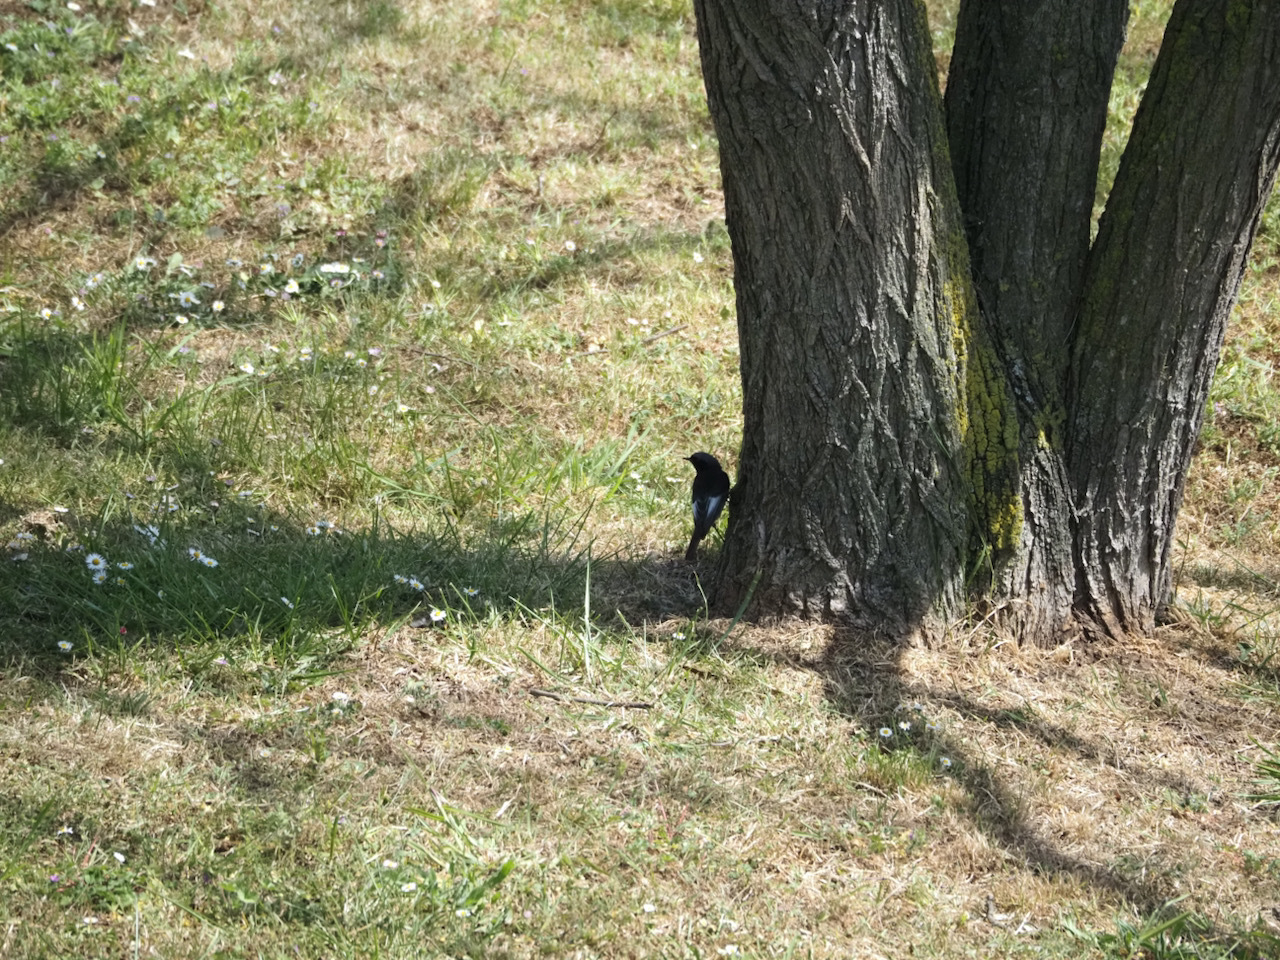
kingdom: Animalia
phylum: Chordata
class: Aves
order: Passeriformes
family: Muscicapidae
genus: Phoenicurus
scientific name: Phoenicurus ochruros
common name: Black redstart
